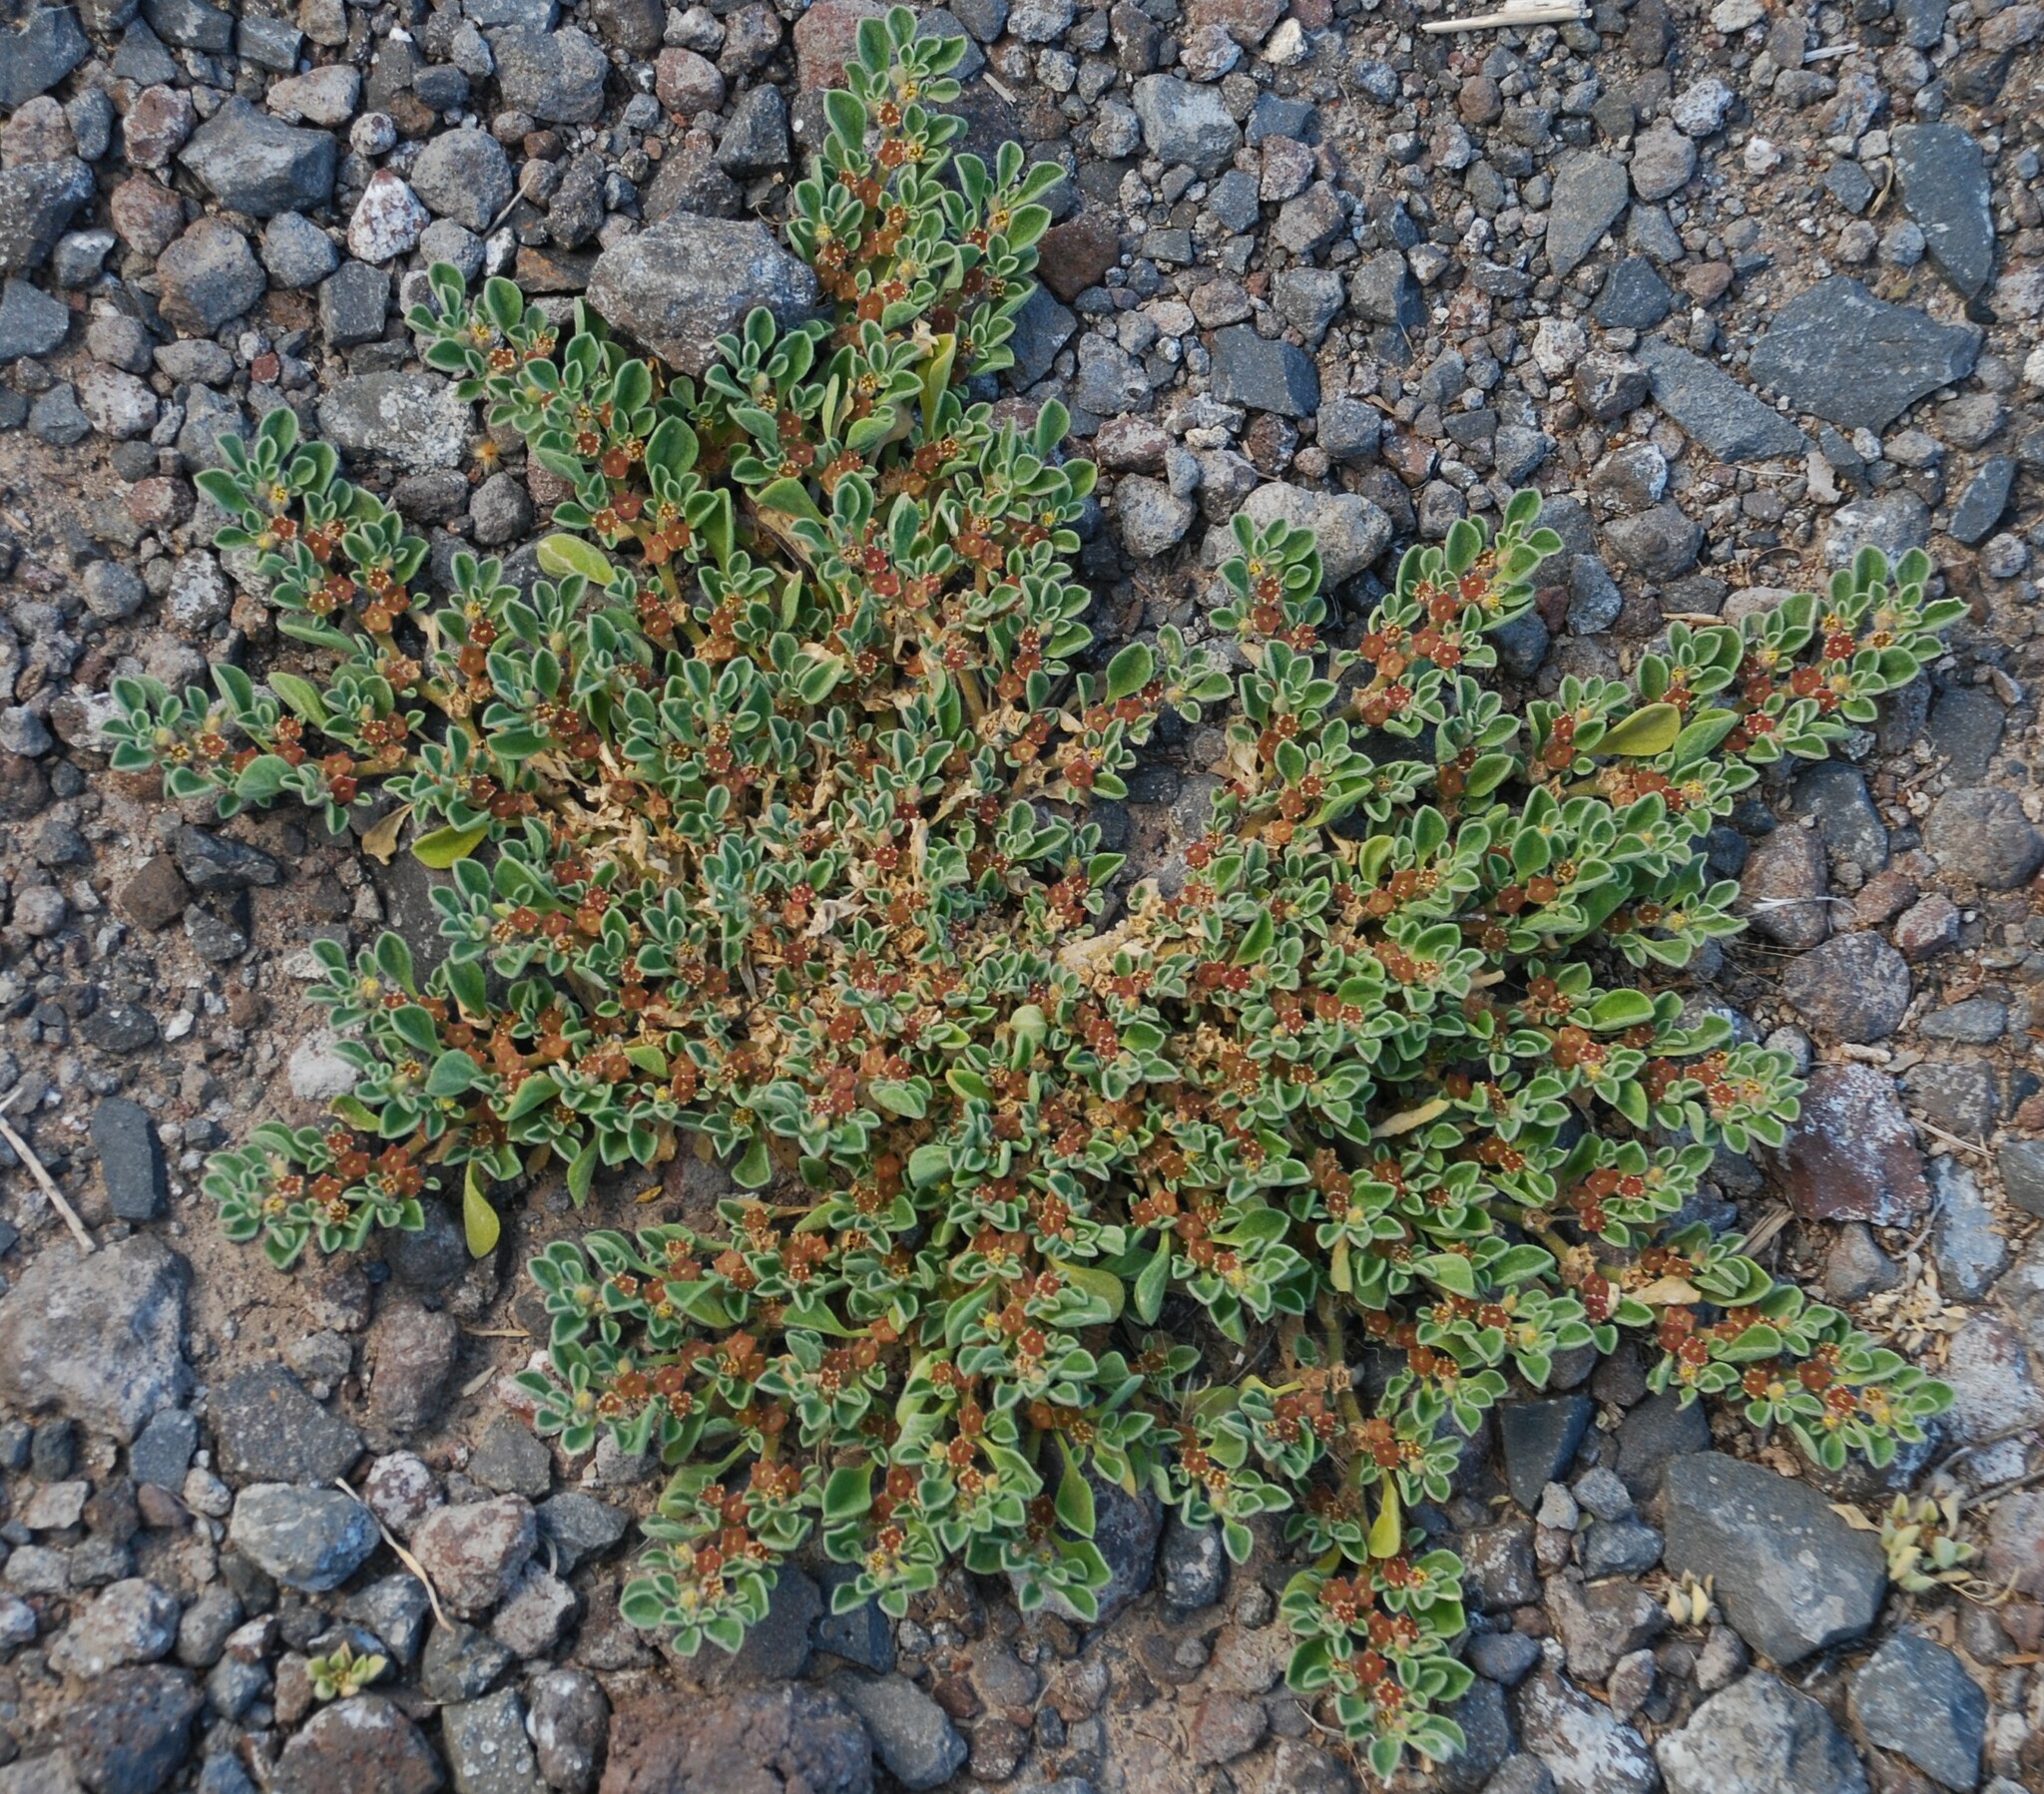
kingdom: Plantae
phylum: Tracheophyta
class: Magnoliopsida
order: Caryophyllales
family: Aizoaceae
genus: Aizoon
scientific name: Aizoon canariense
